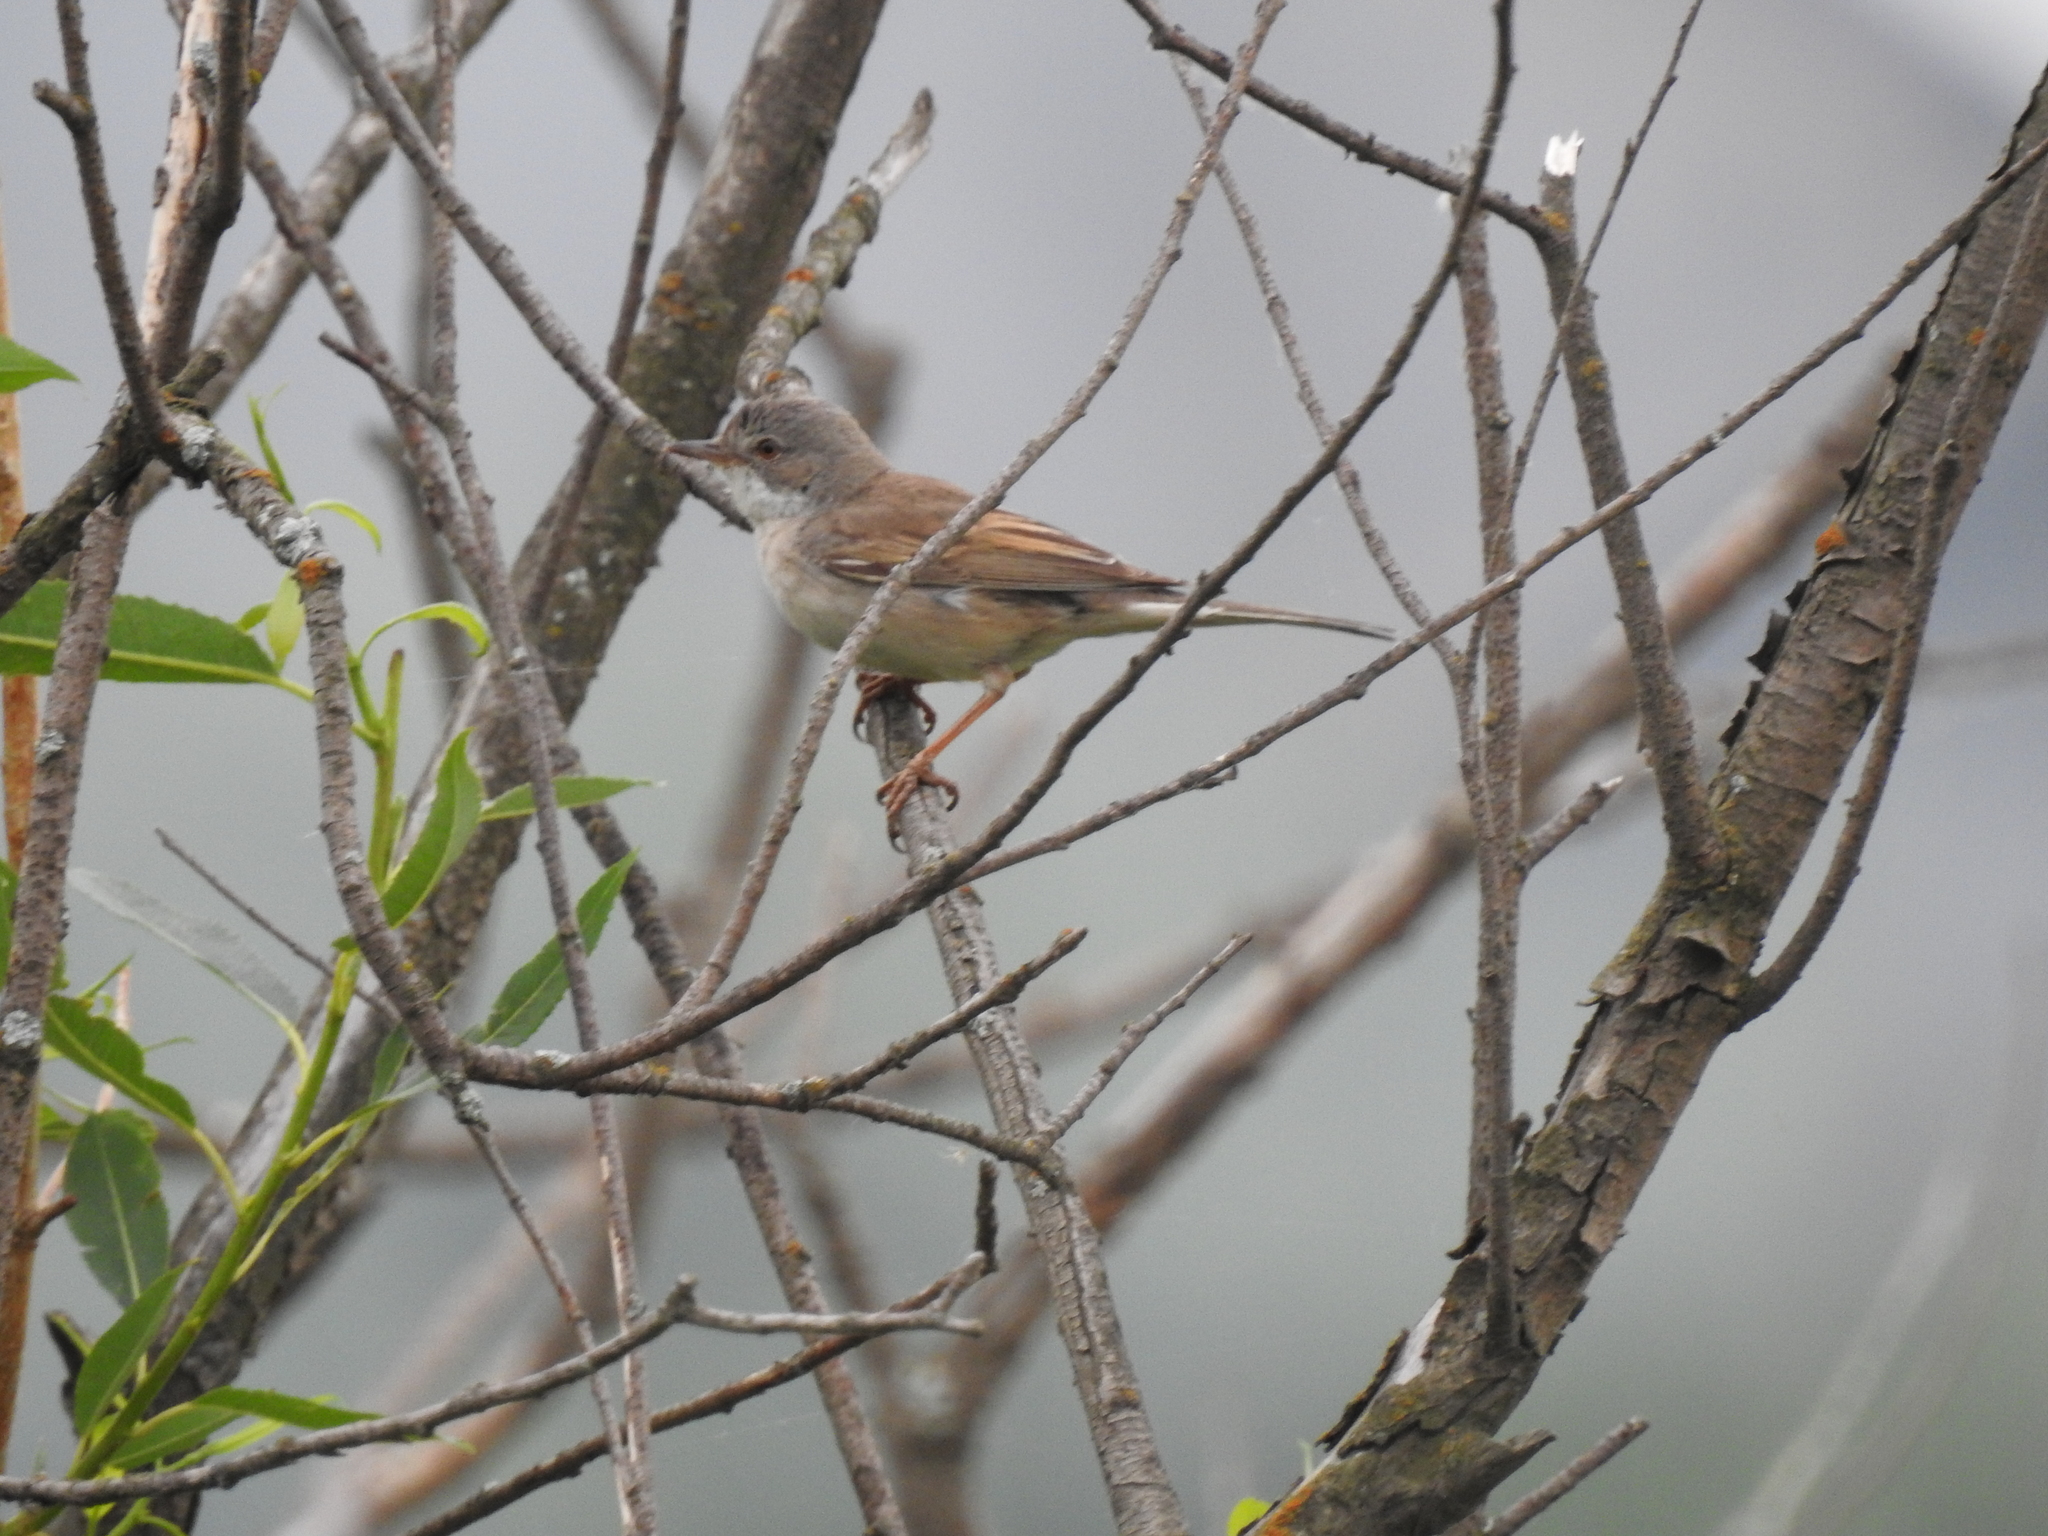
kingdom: Animalia
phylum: Chordata
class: Aves
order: Passeriformes
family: Sylviidae
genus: Sylvia
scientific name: Sylvia communis
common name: Common whitethroat
